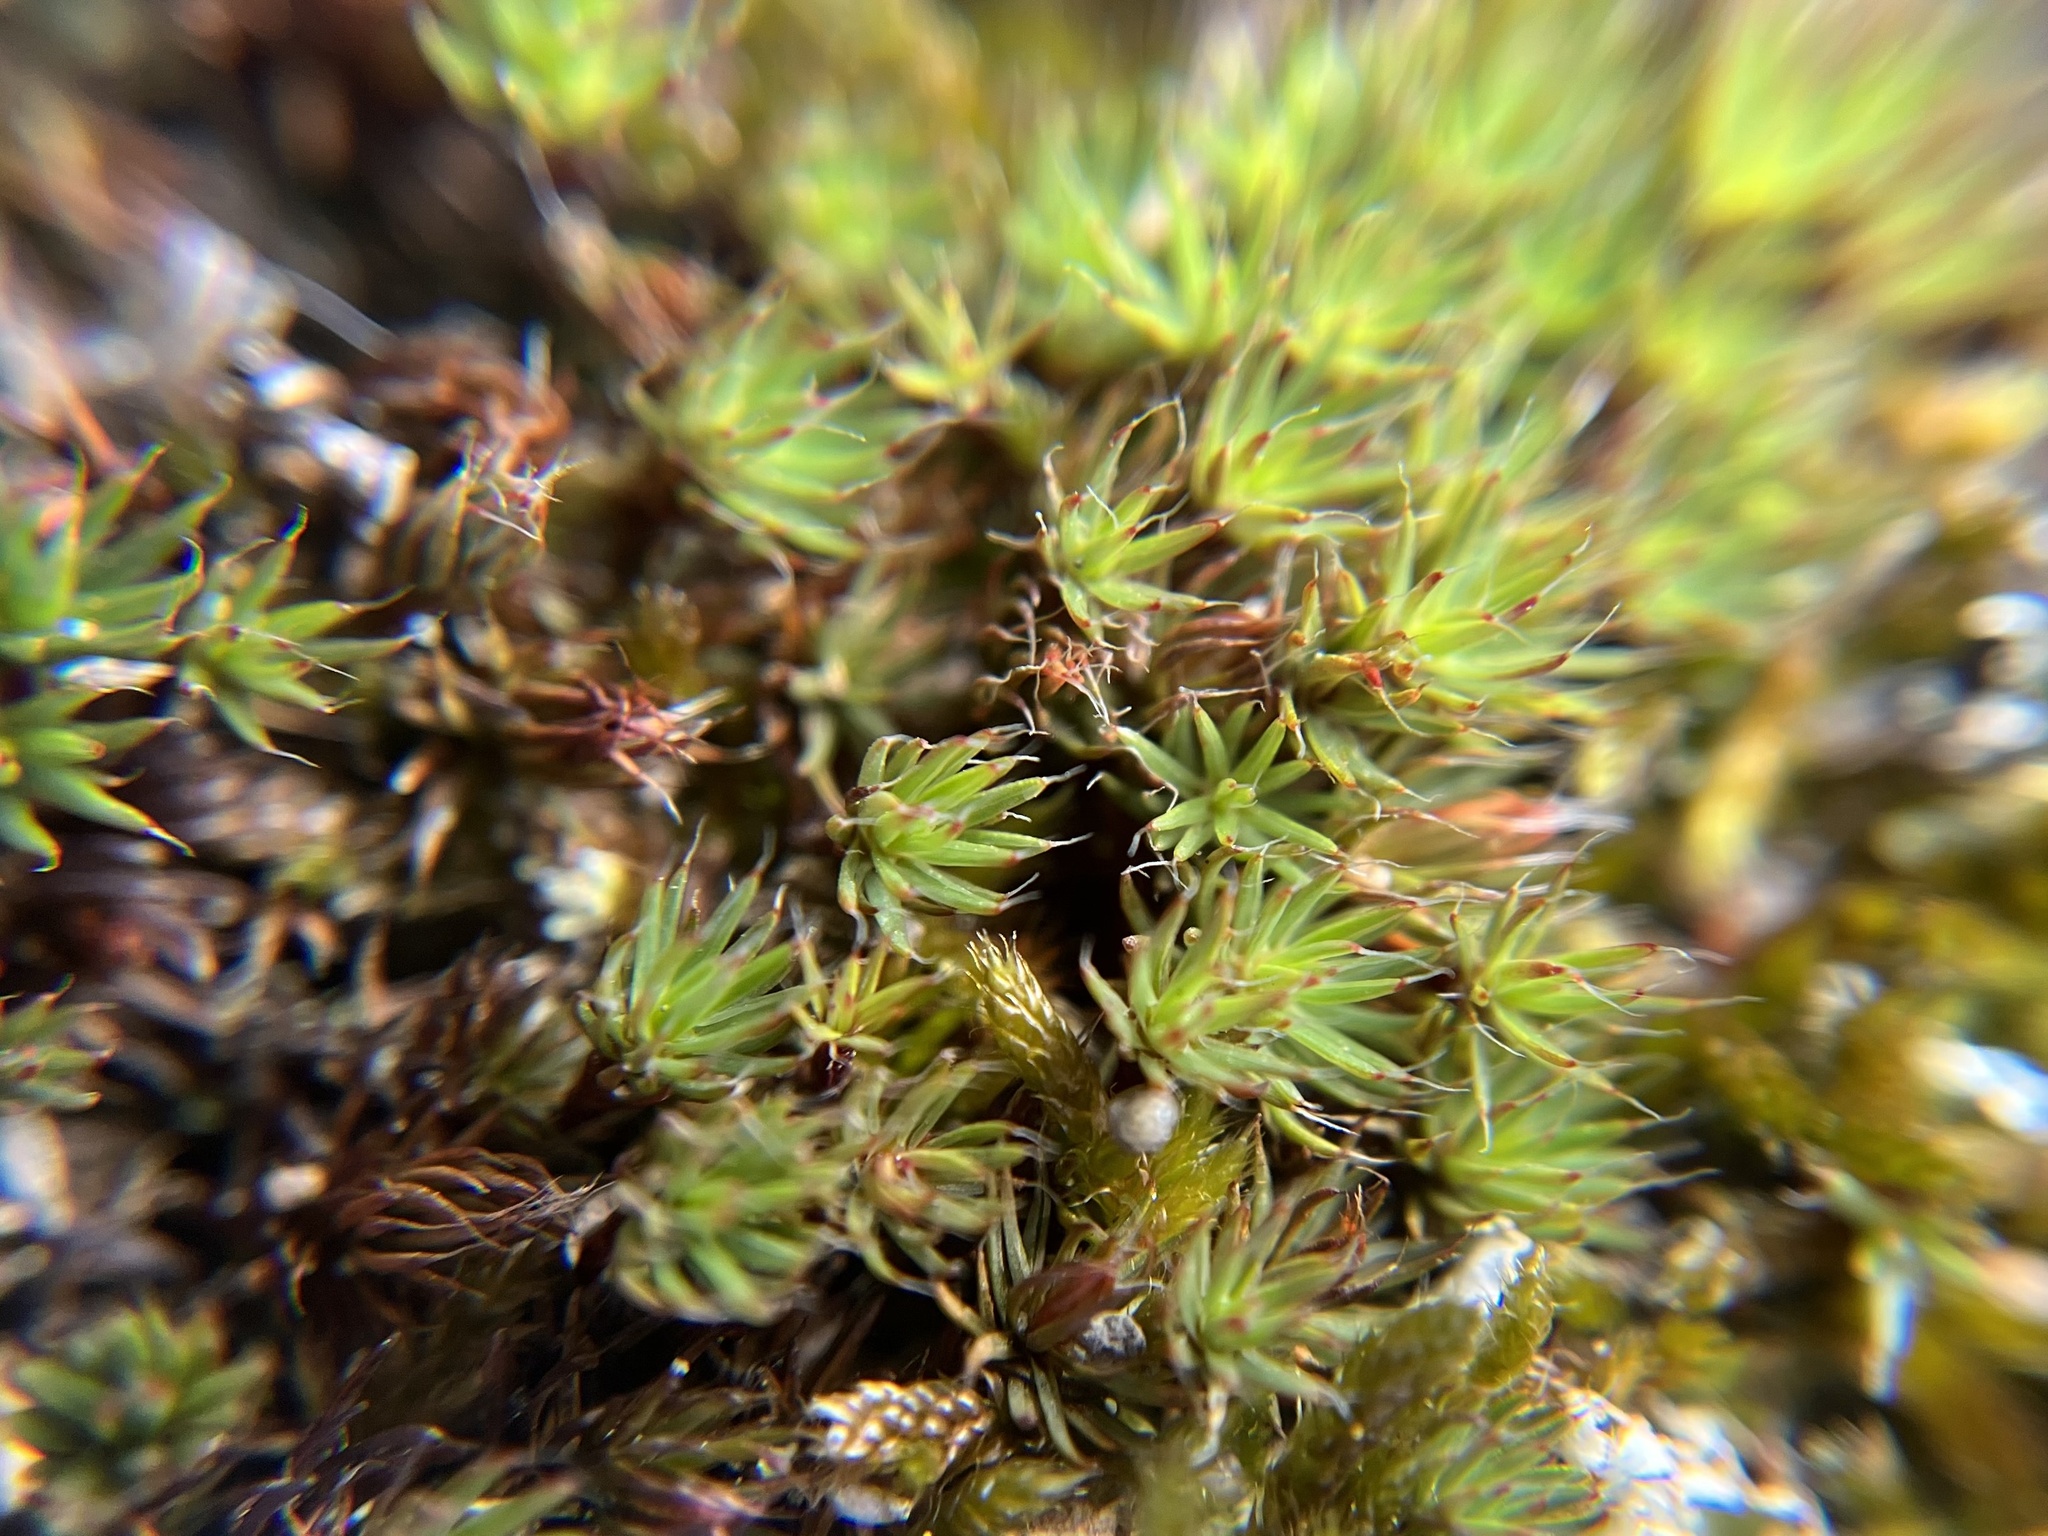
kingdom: Plantae
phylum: Bryophyta
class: Polytrichopsida
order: Polytrichales
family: Polytrichaceae
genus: Polytrichum
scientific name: Polytrichum piliferum
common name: Bristly haircap
